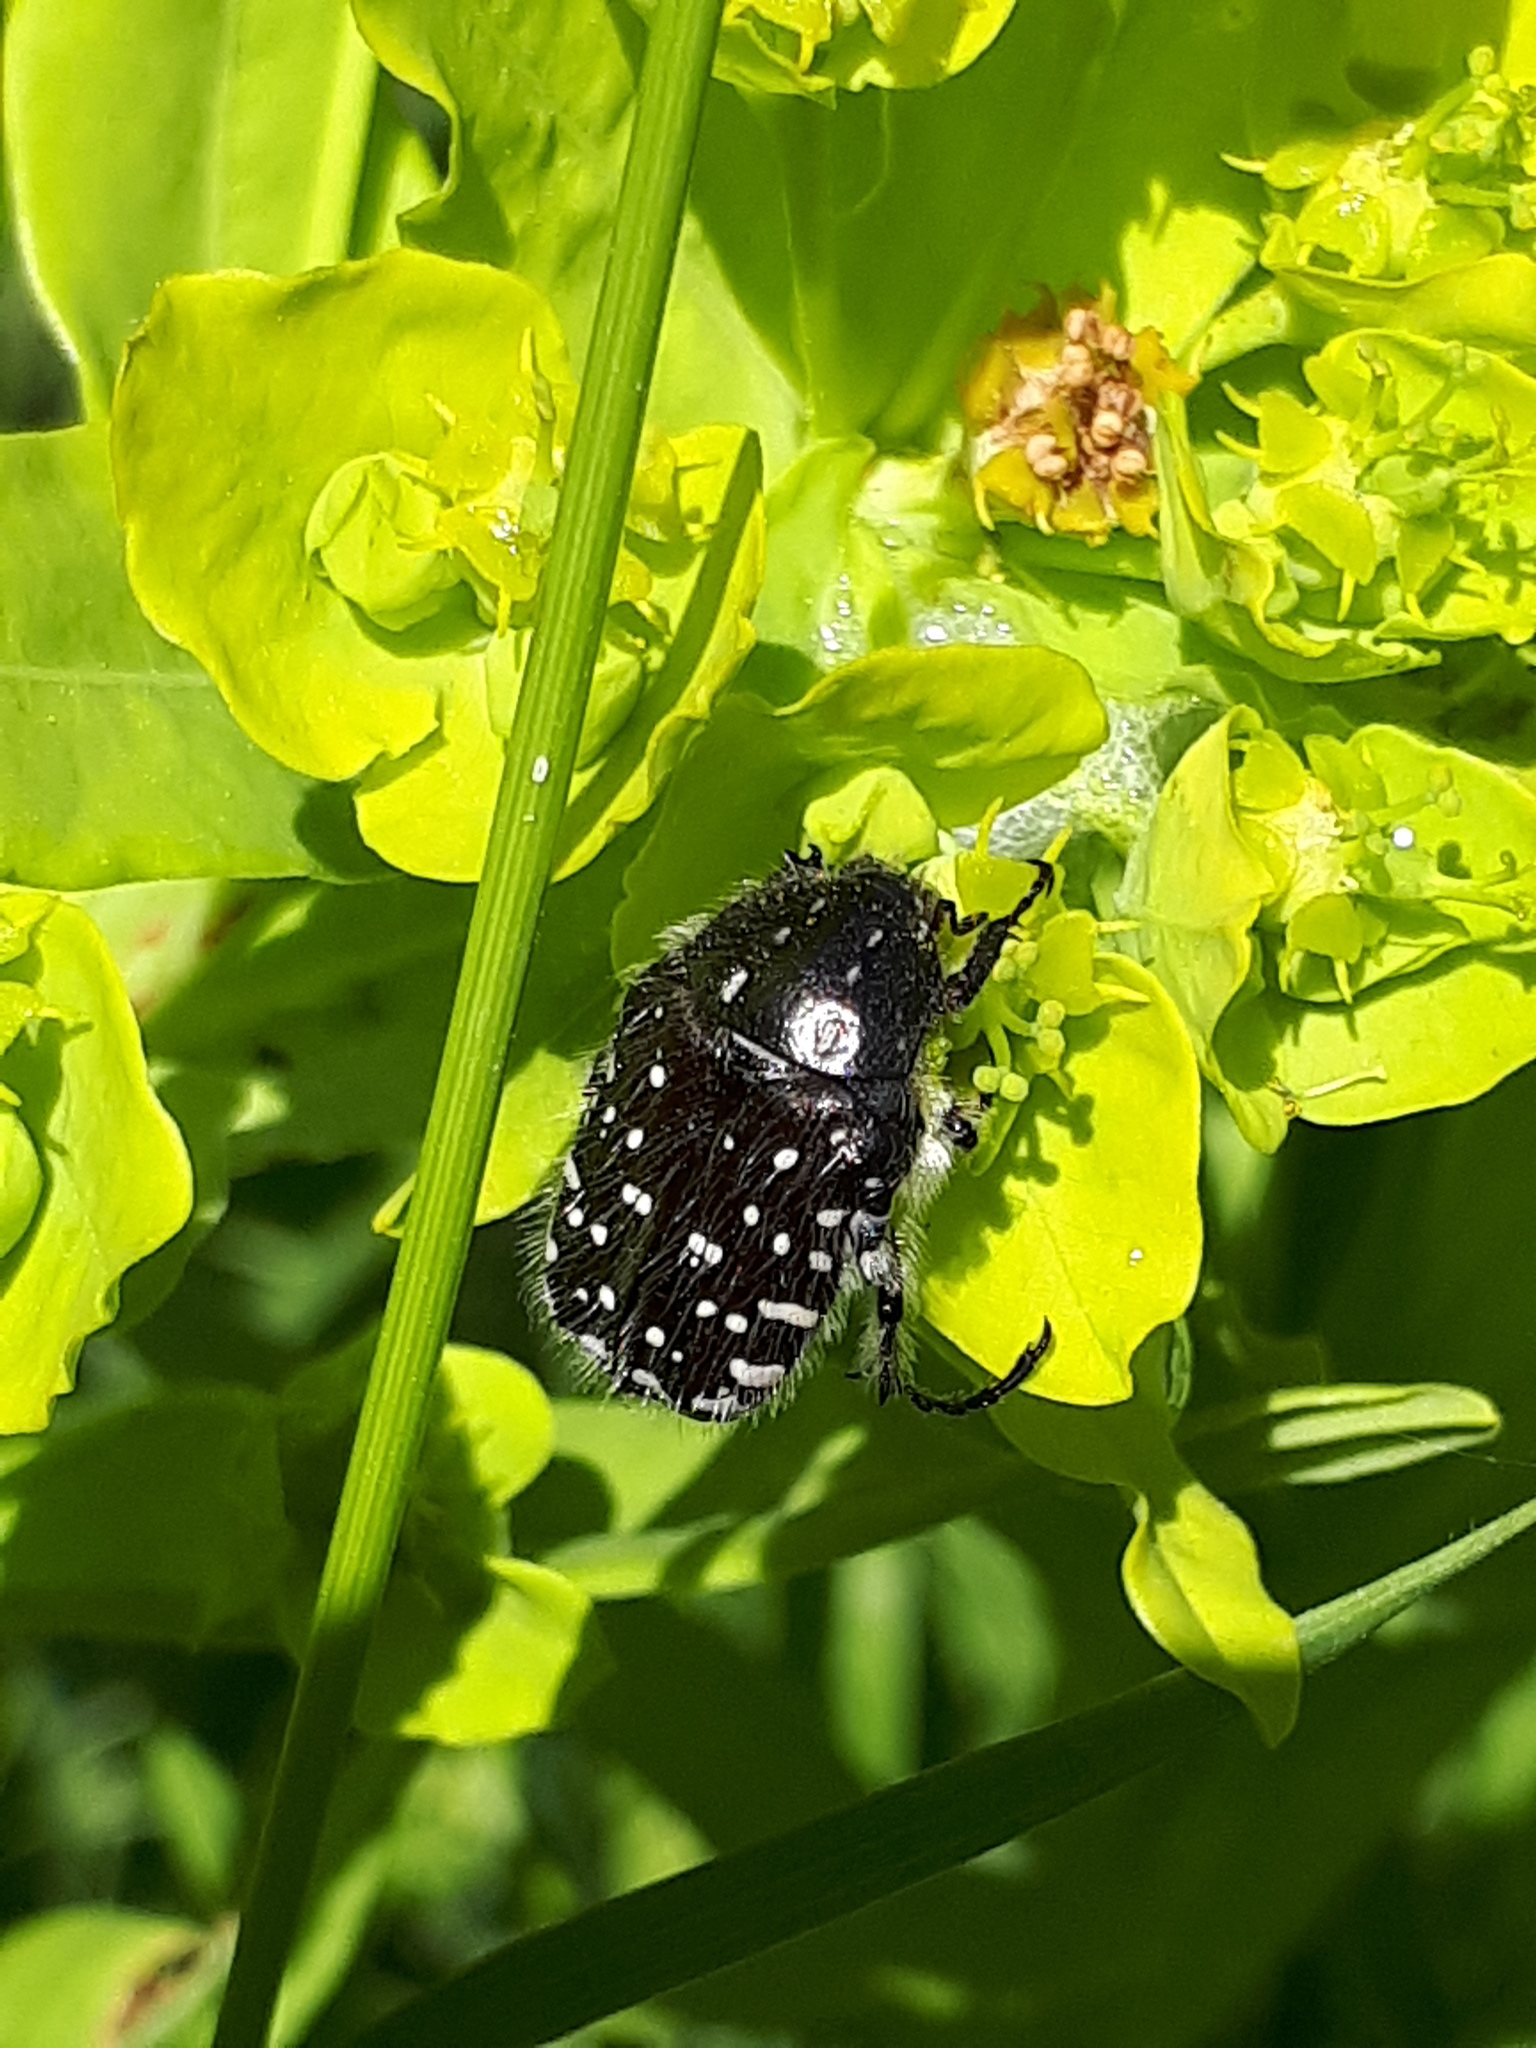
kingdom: Animalia
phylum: Arthropoda
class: Insecta
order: Coleoptera
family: Scarabaeidae
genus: Oxythyrea
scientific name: Oxythyrea funesta
